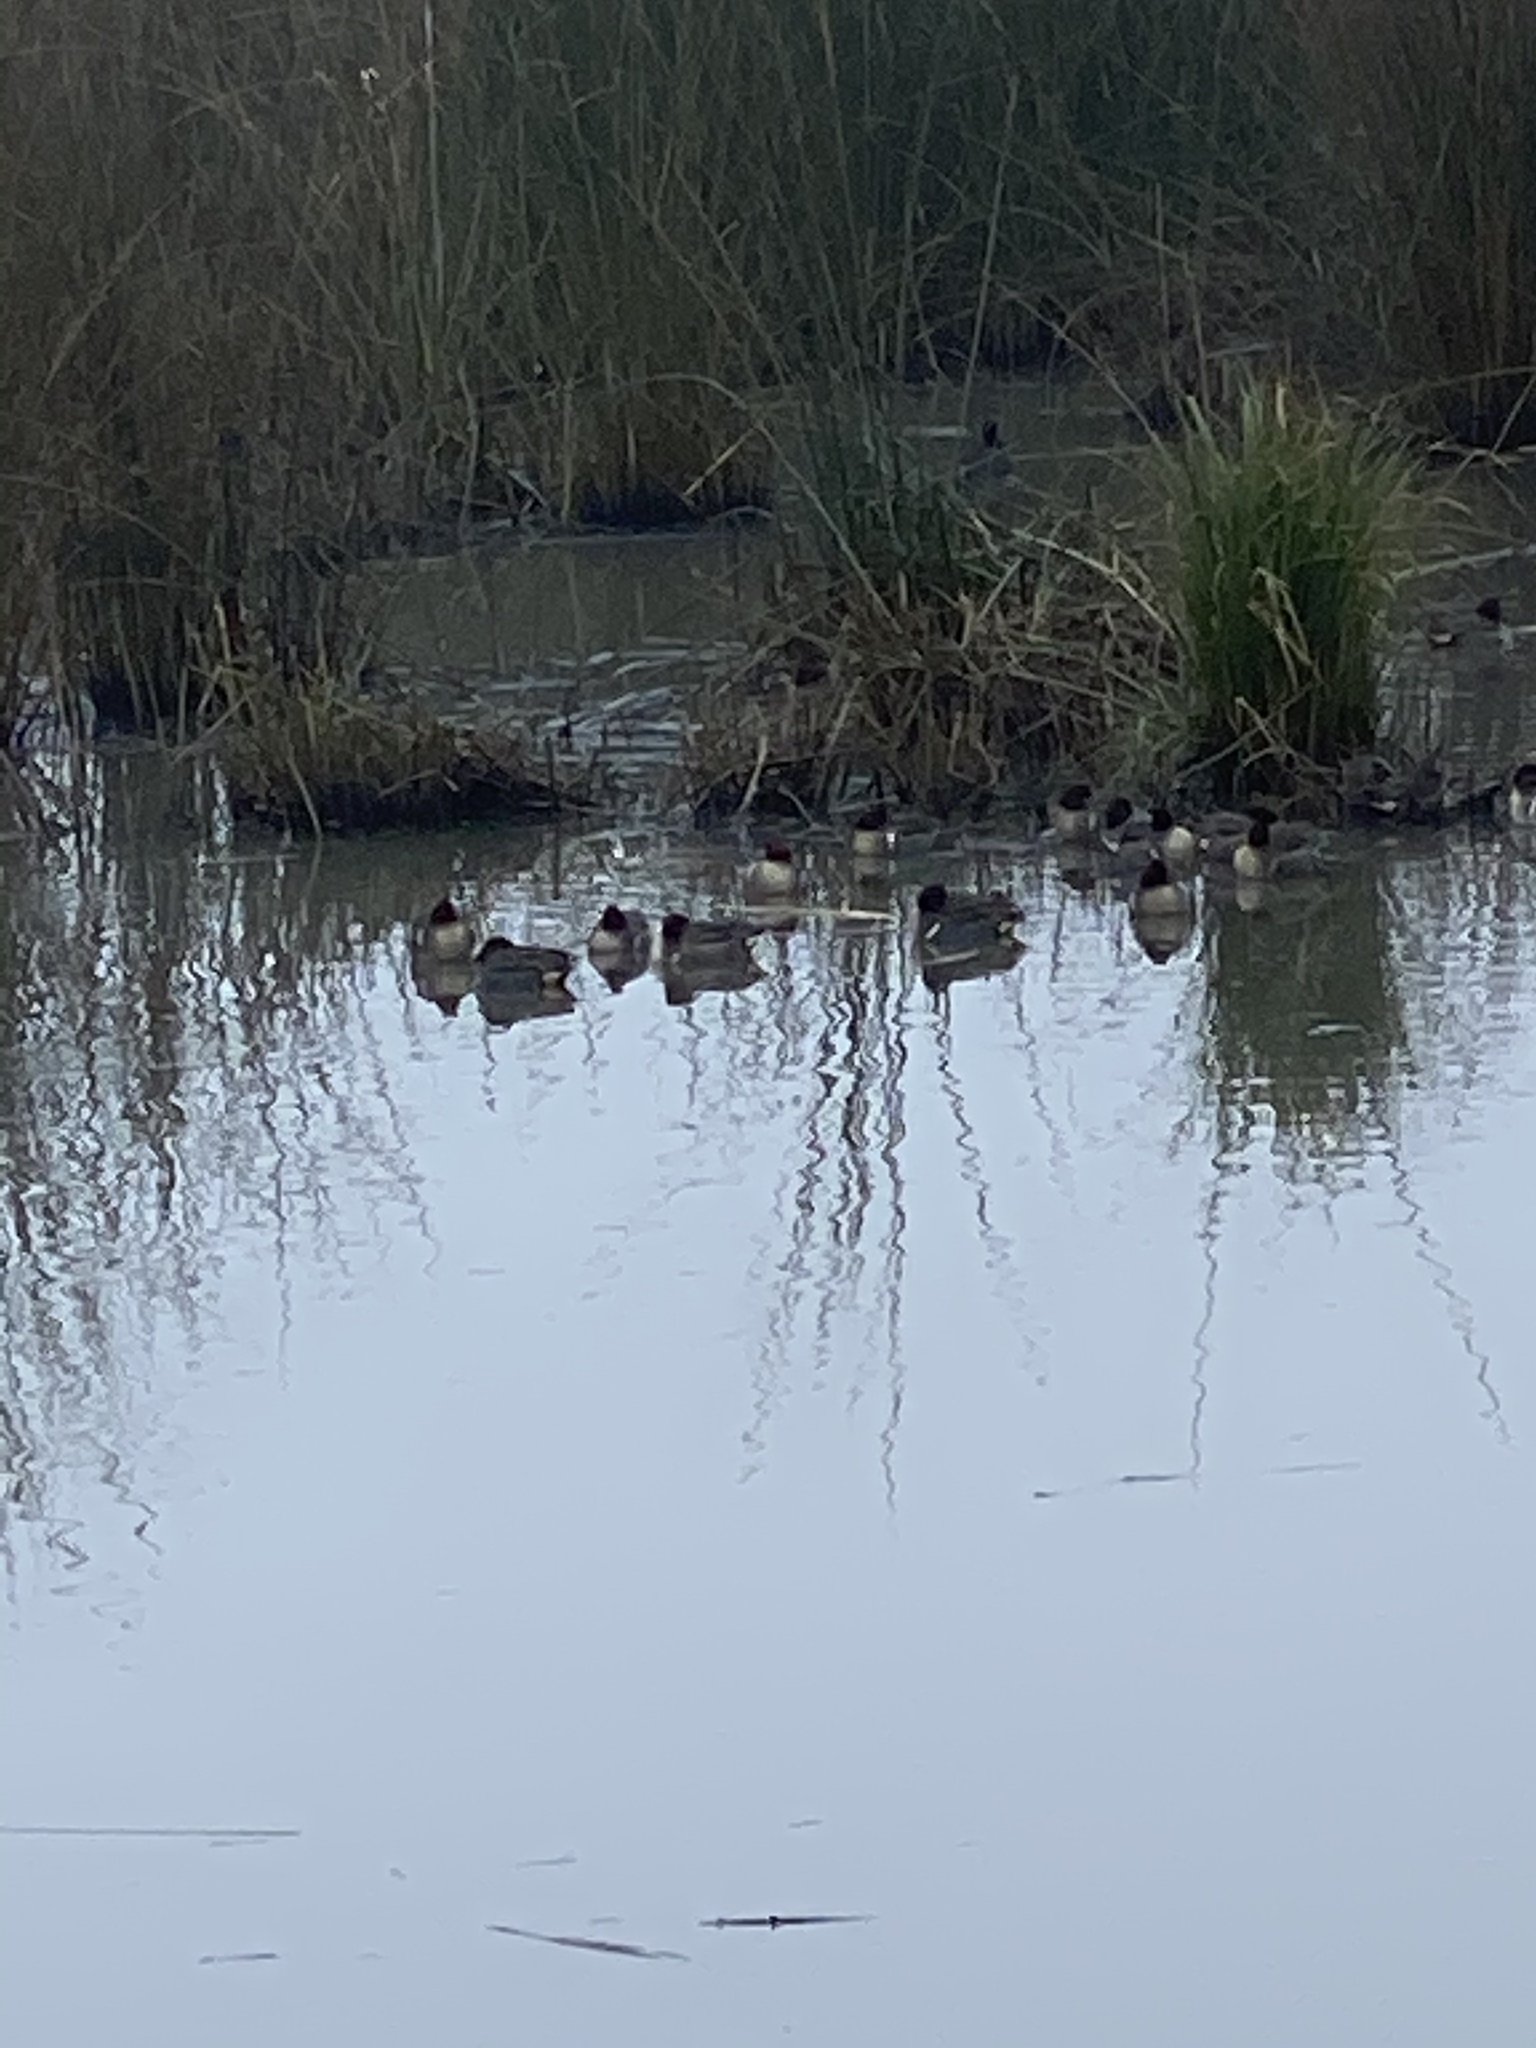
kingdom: Animalia
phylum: Chordata
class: Aves
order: Anseriformes
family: Anatidae
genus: Anas
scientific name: Anas crecca
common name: Eurasian teal
